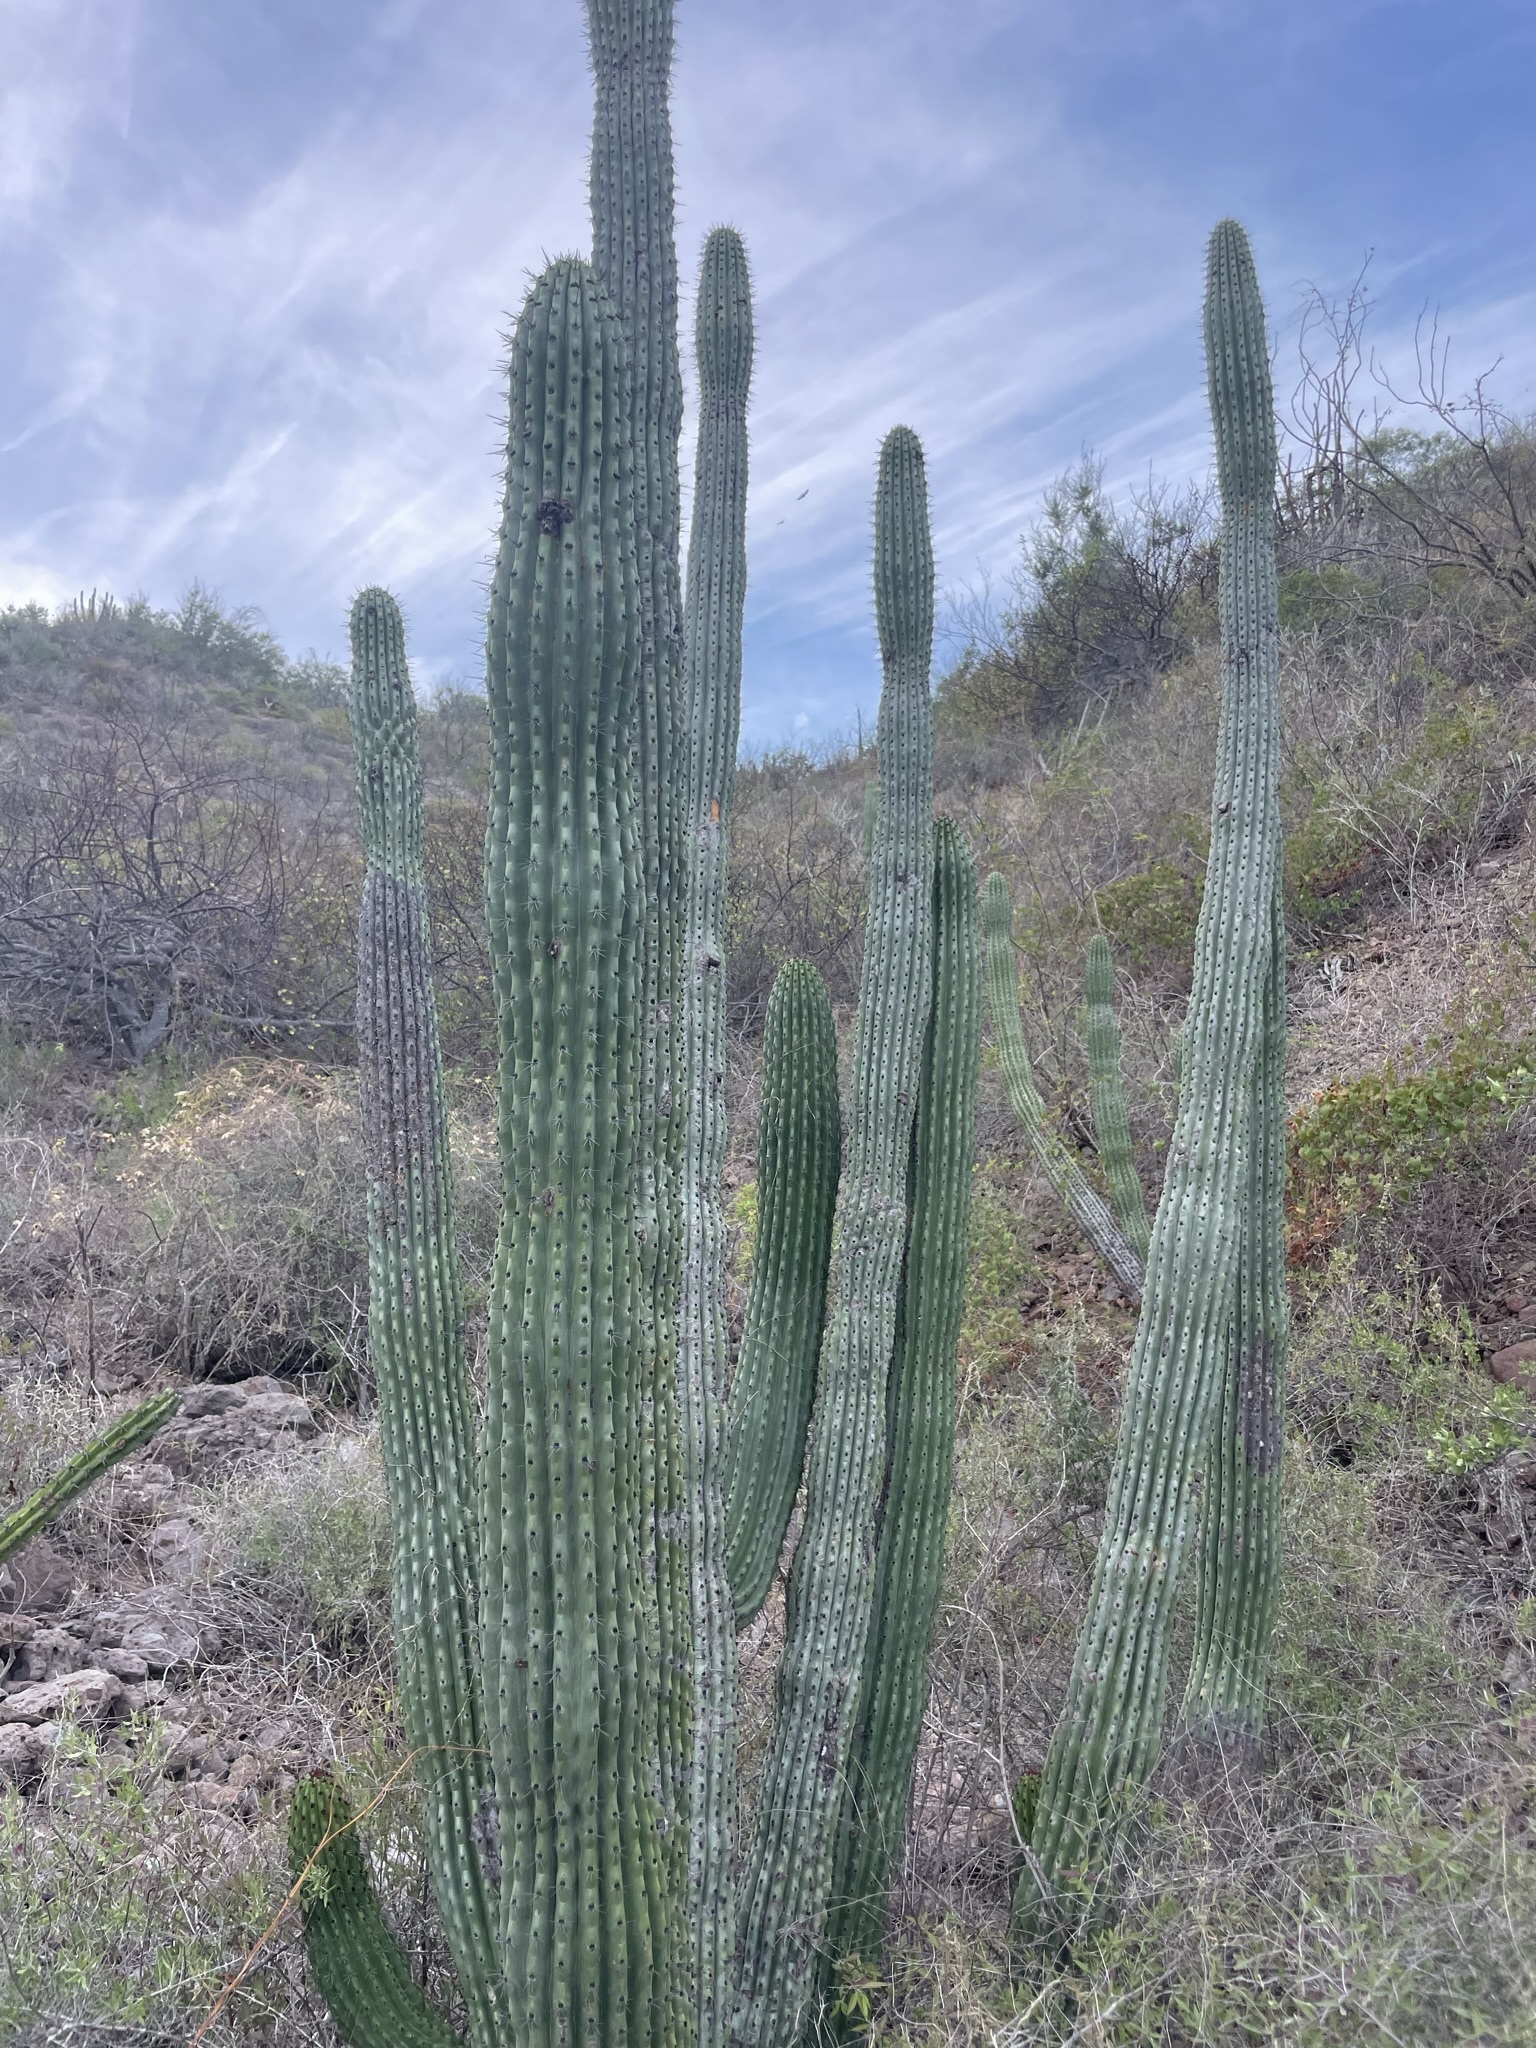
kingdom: Plantae
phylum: Tracheophyta
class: Magnoliopsida
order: Caryophyllales
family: Cactaceae
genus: Stenocereus
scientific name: Stenocereus thurberi
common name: Organ pipe cactus
